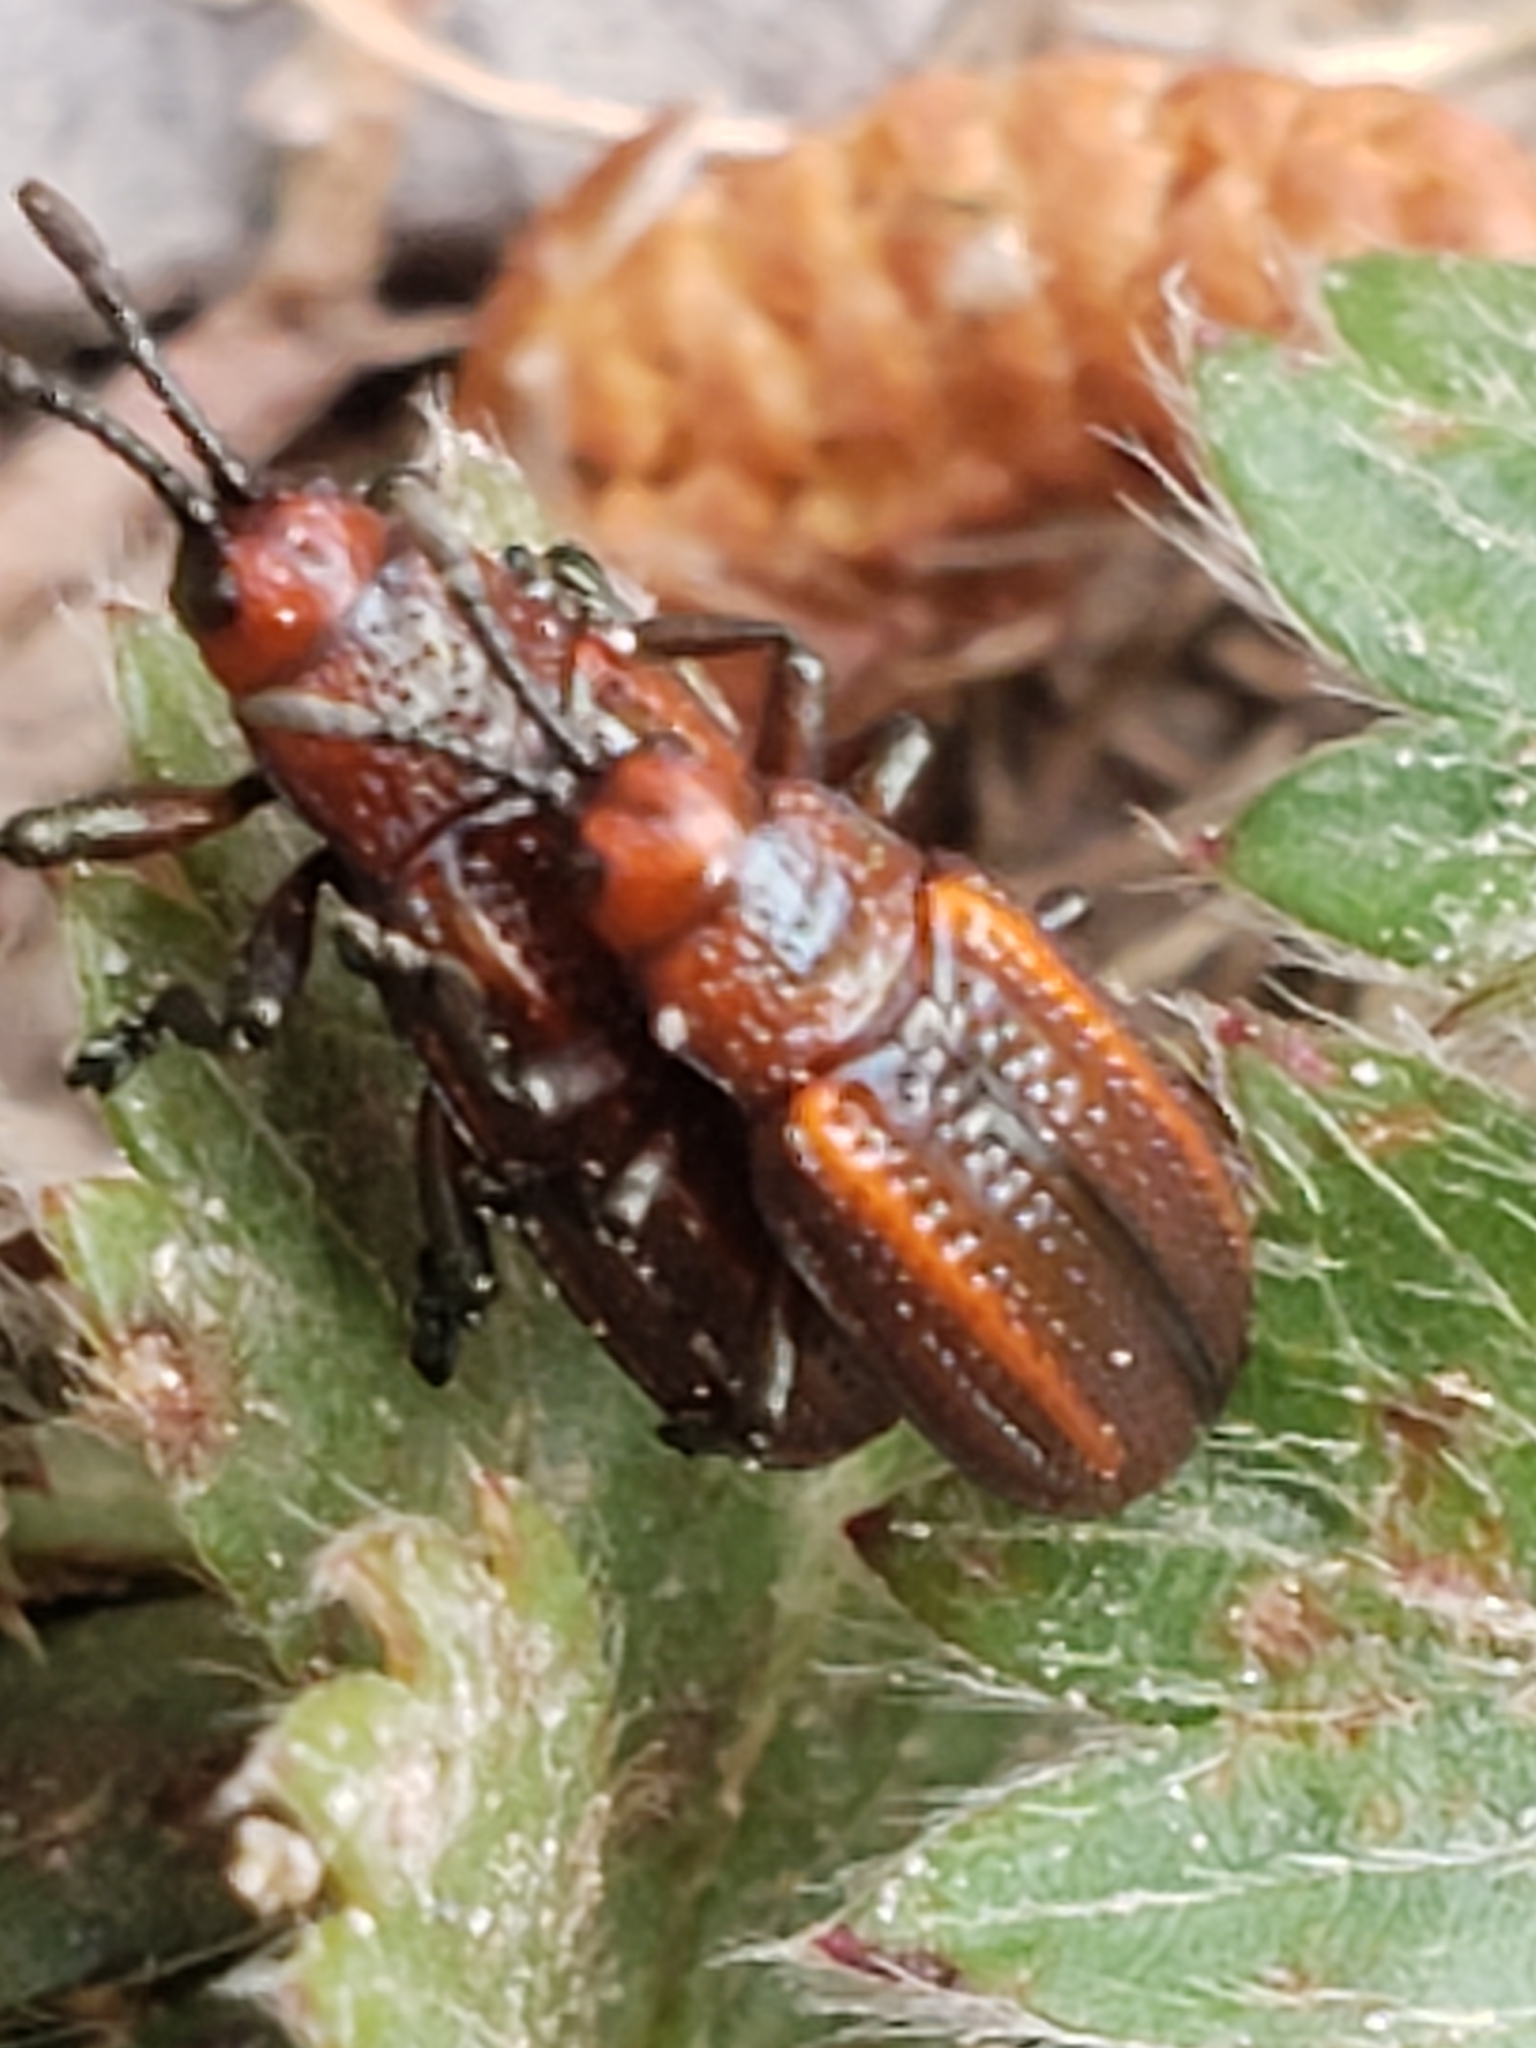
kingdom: Animalia
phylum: Arthropoda
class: Insecta
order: Coleoptera
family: Chrysomelidae
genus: Microrhopala
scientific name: Microrhopala vittata
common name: Goldenrod leaf miner beetle
